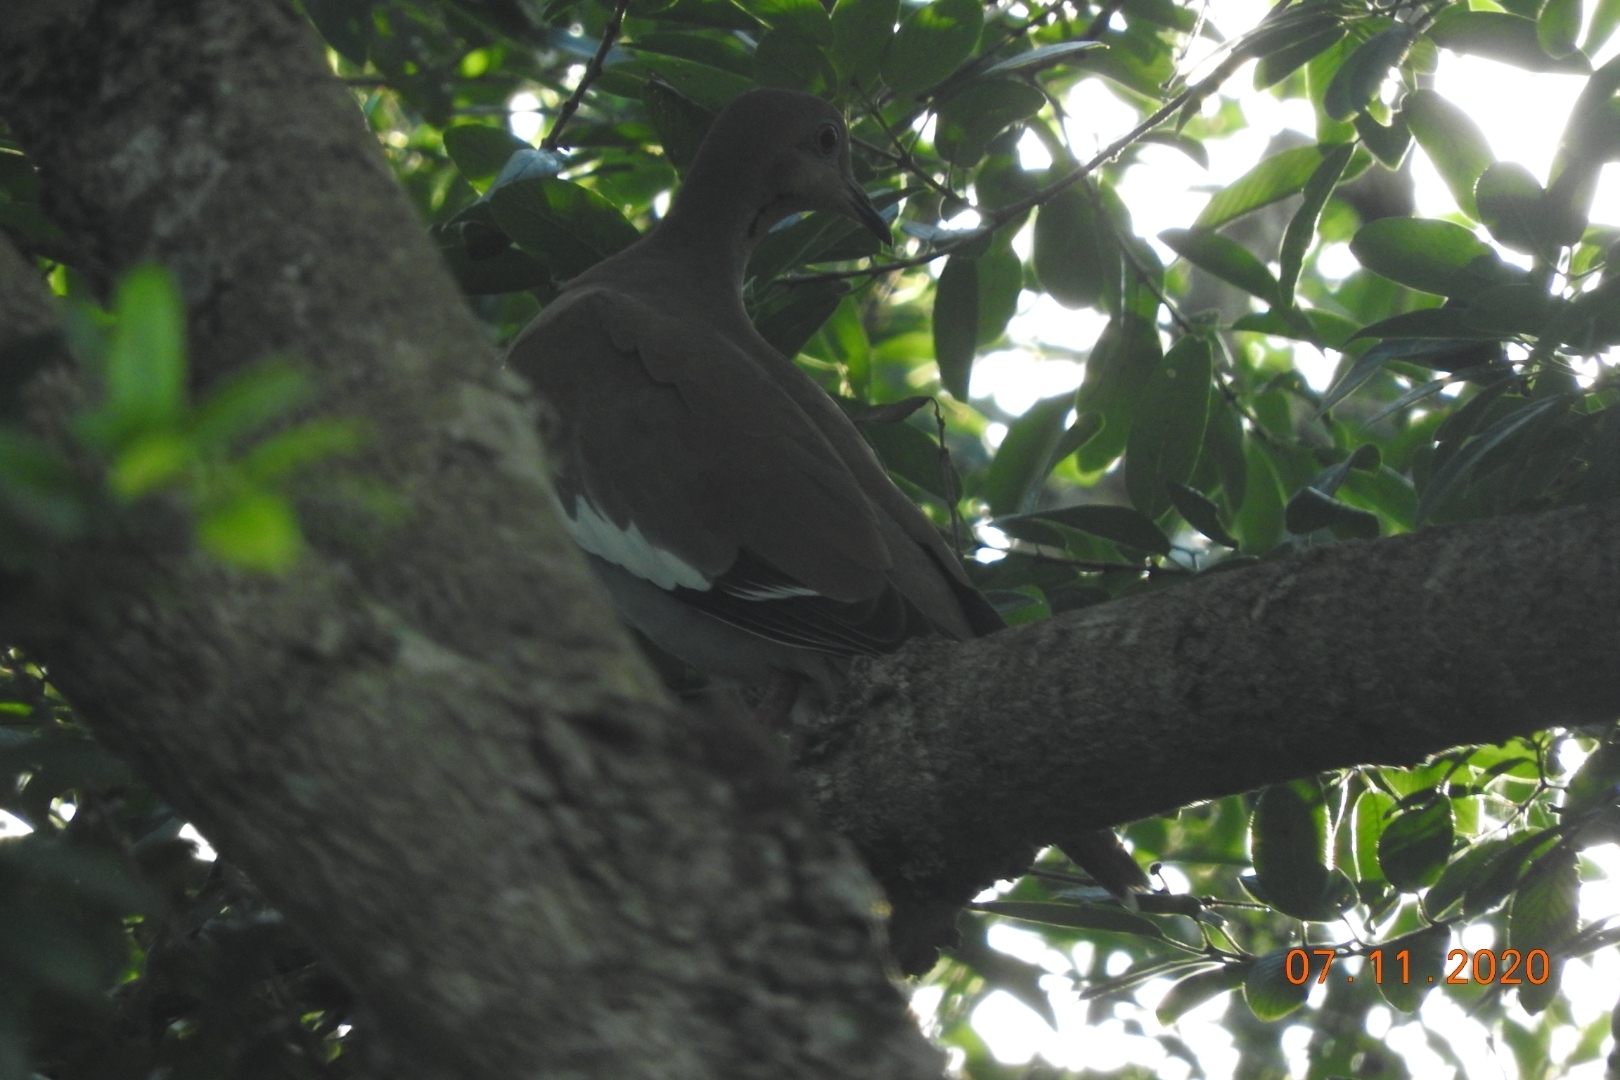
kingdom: Animalia
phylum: Chordata
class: Aves
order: Columbiformes
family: Columbidae
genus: Zenaida
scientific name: Zenaida asiatica
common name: White-winged dove
